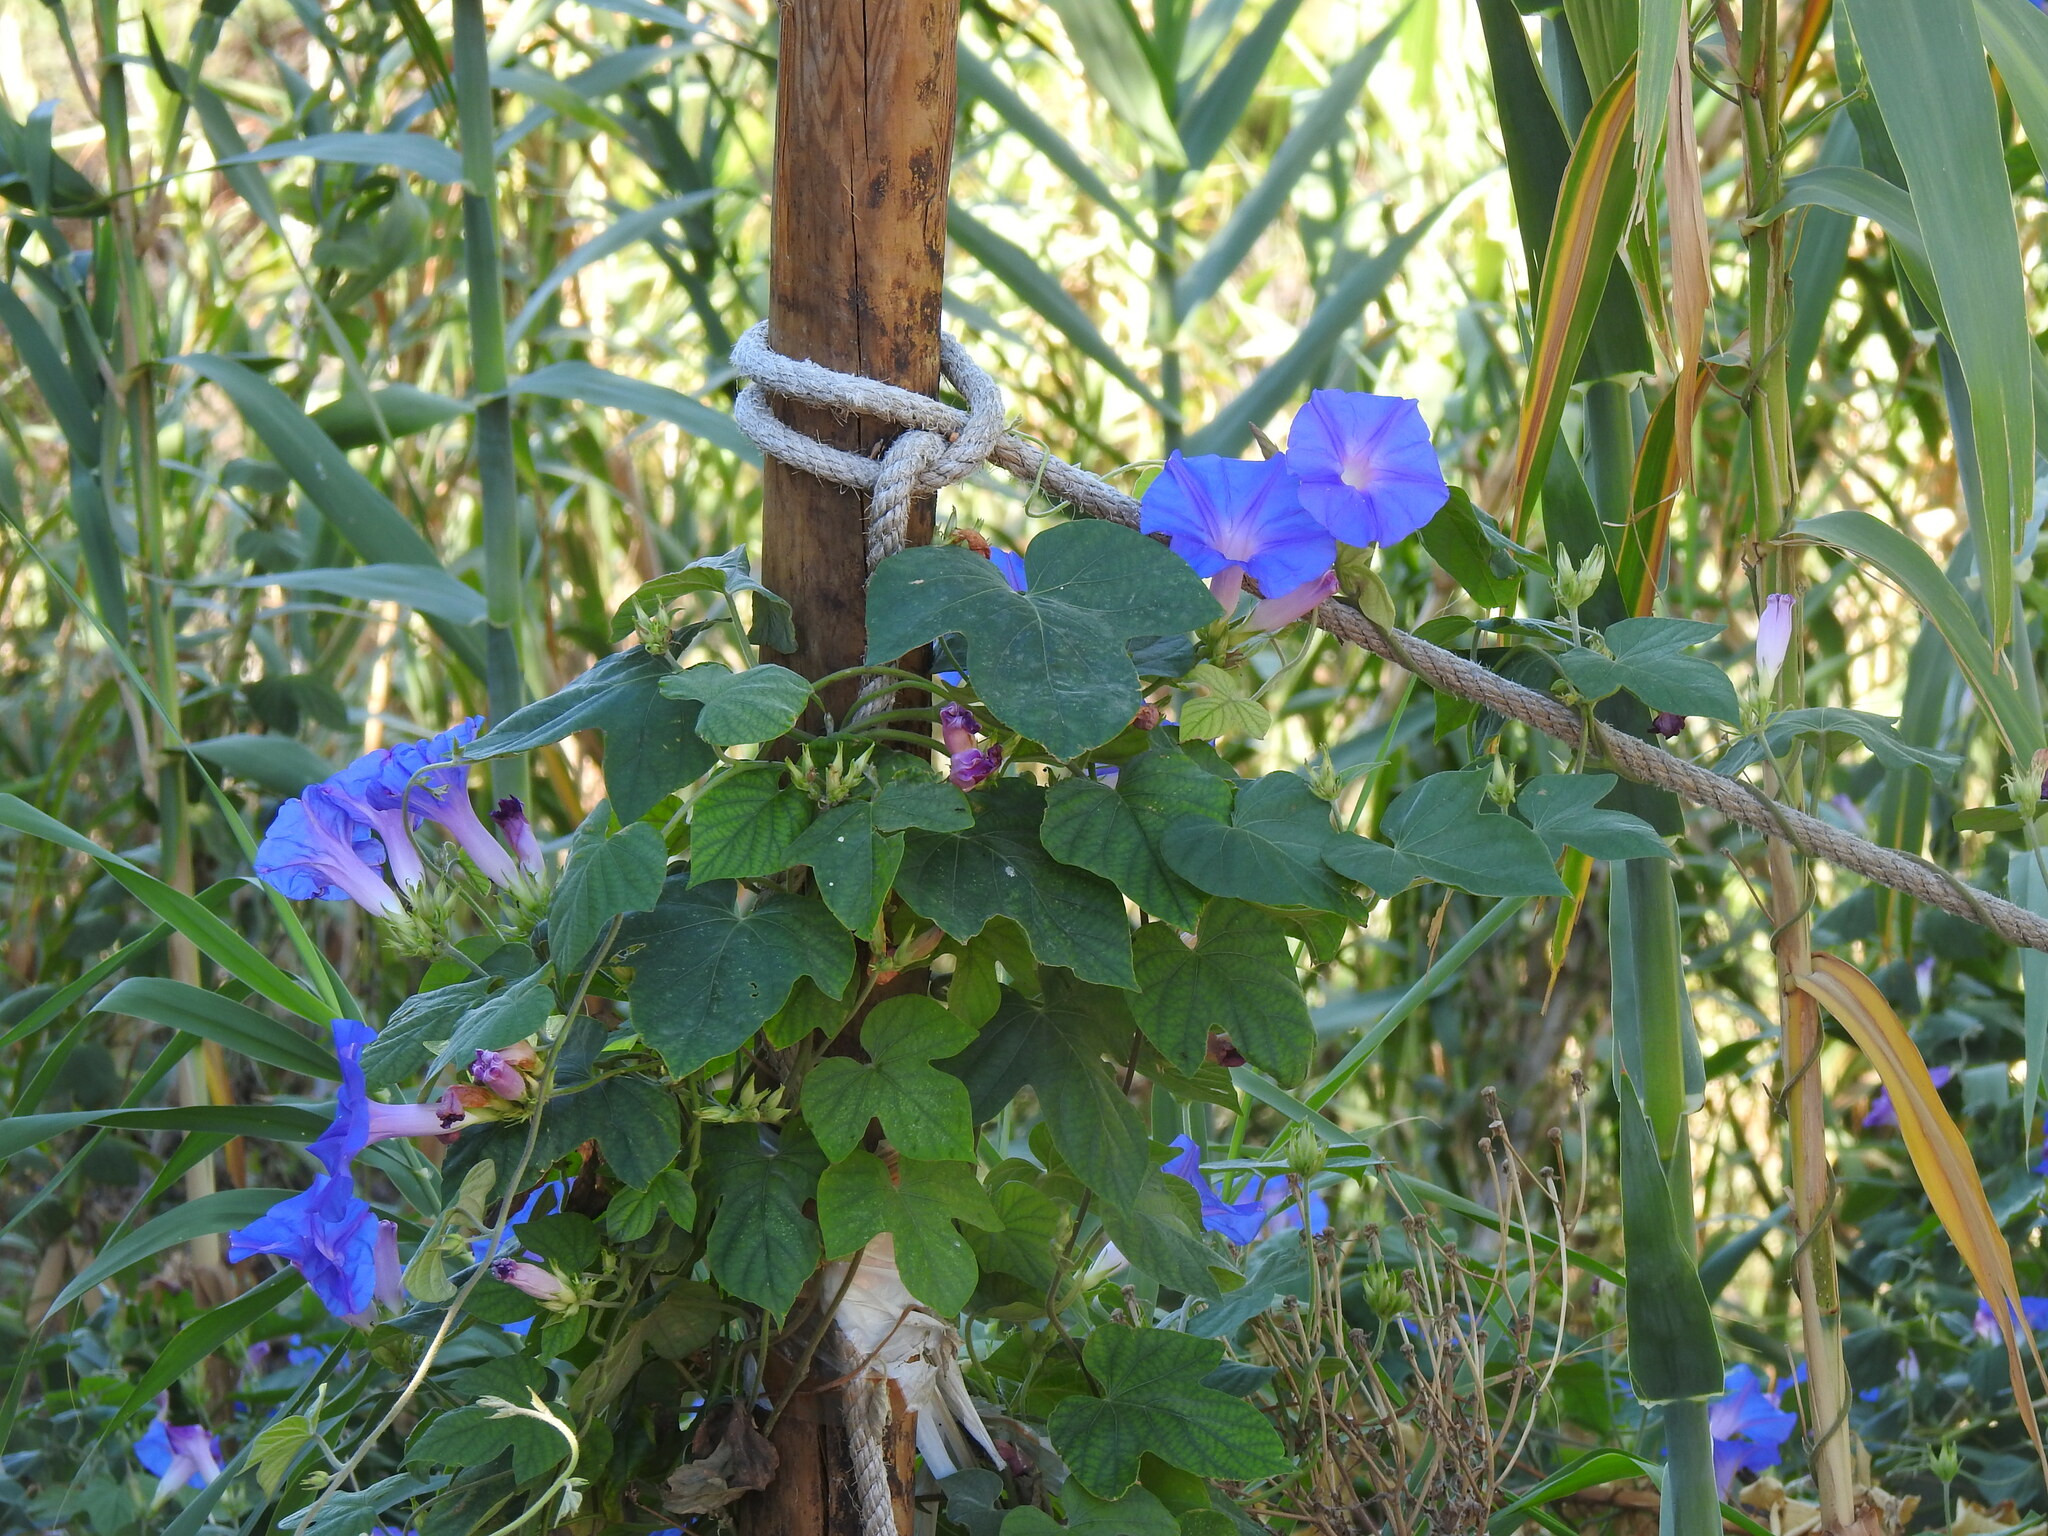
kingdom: Plantae
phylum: Tracheophyta
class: Magnoliopsida
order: Solanales
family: Convolvulaceae
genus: Ipomoea
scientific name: Ipomoea indica
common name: Blue dawnflower
